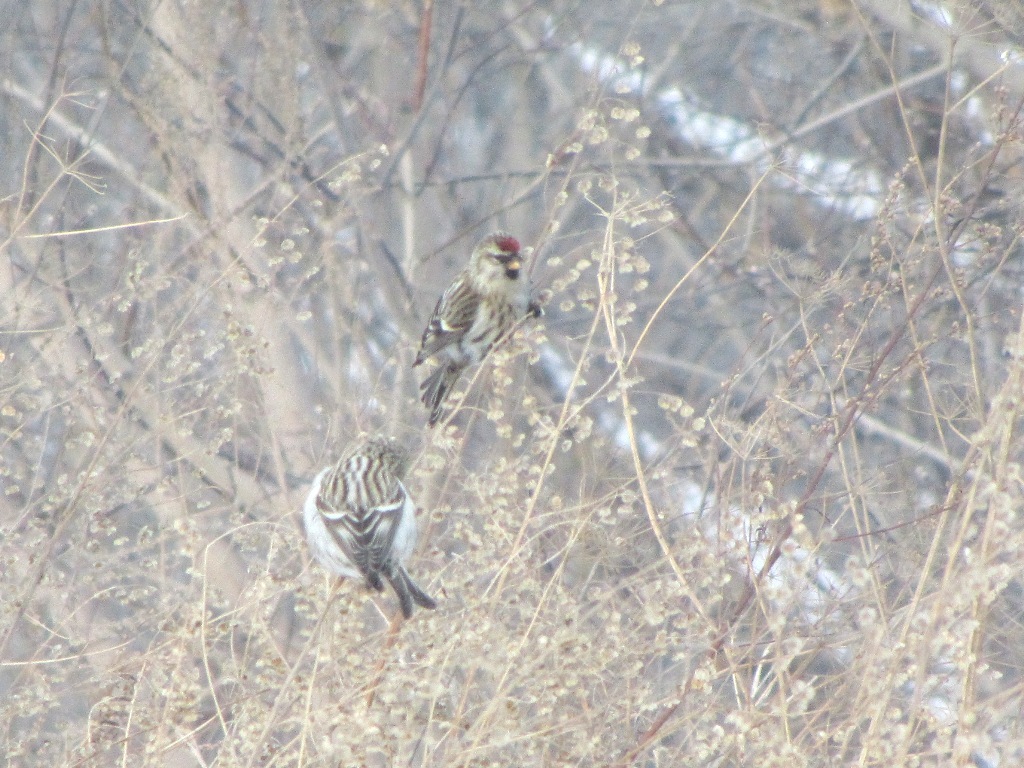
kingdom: Animalia
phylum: Chordata
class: Aves
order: Passeriformes
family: Fringillidae
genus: Acanthis
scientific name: Acanthis flammea
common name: Common redpoll
